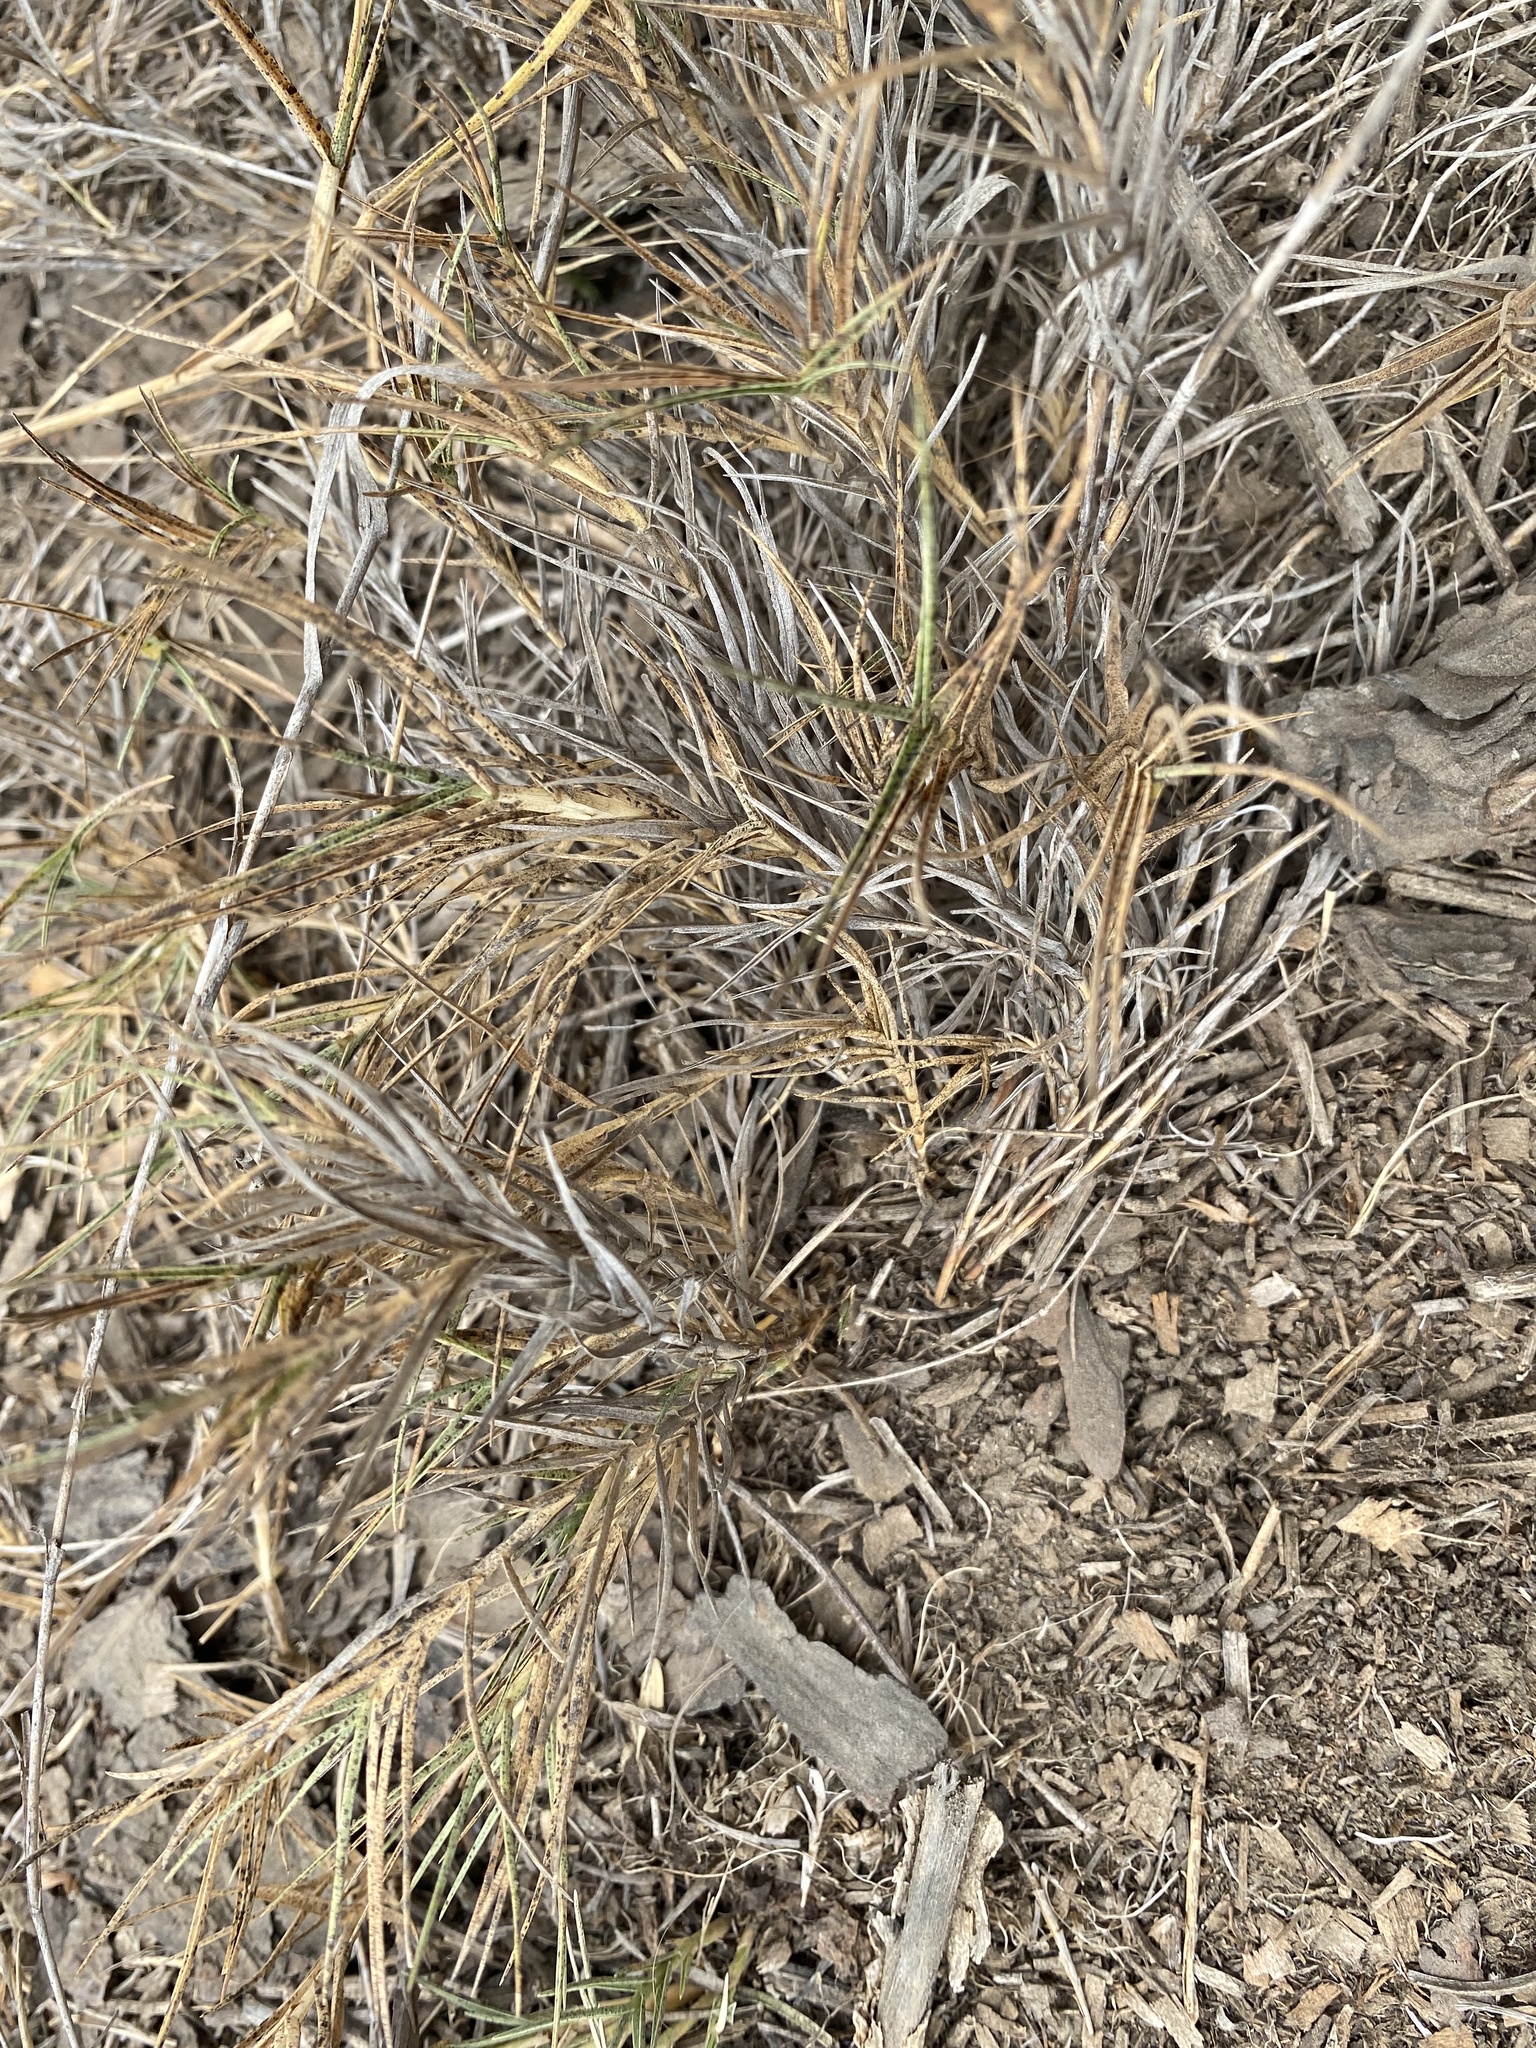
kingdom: Plantae
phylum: Tracheophyta
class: Liliopsida
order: Poales
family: Poaceae
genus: Distichlis
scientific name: Distichlis spicata
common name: Saltgrass
